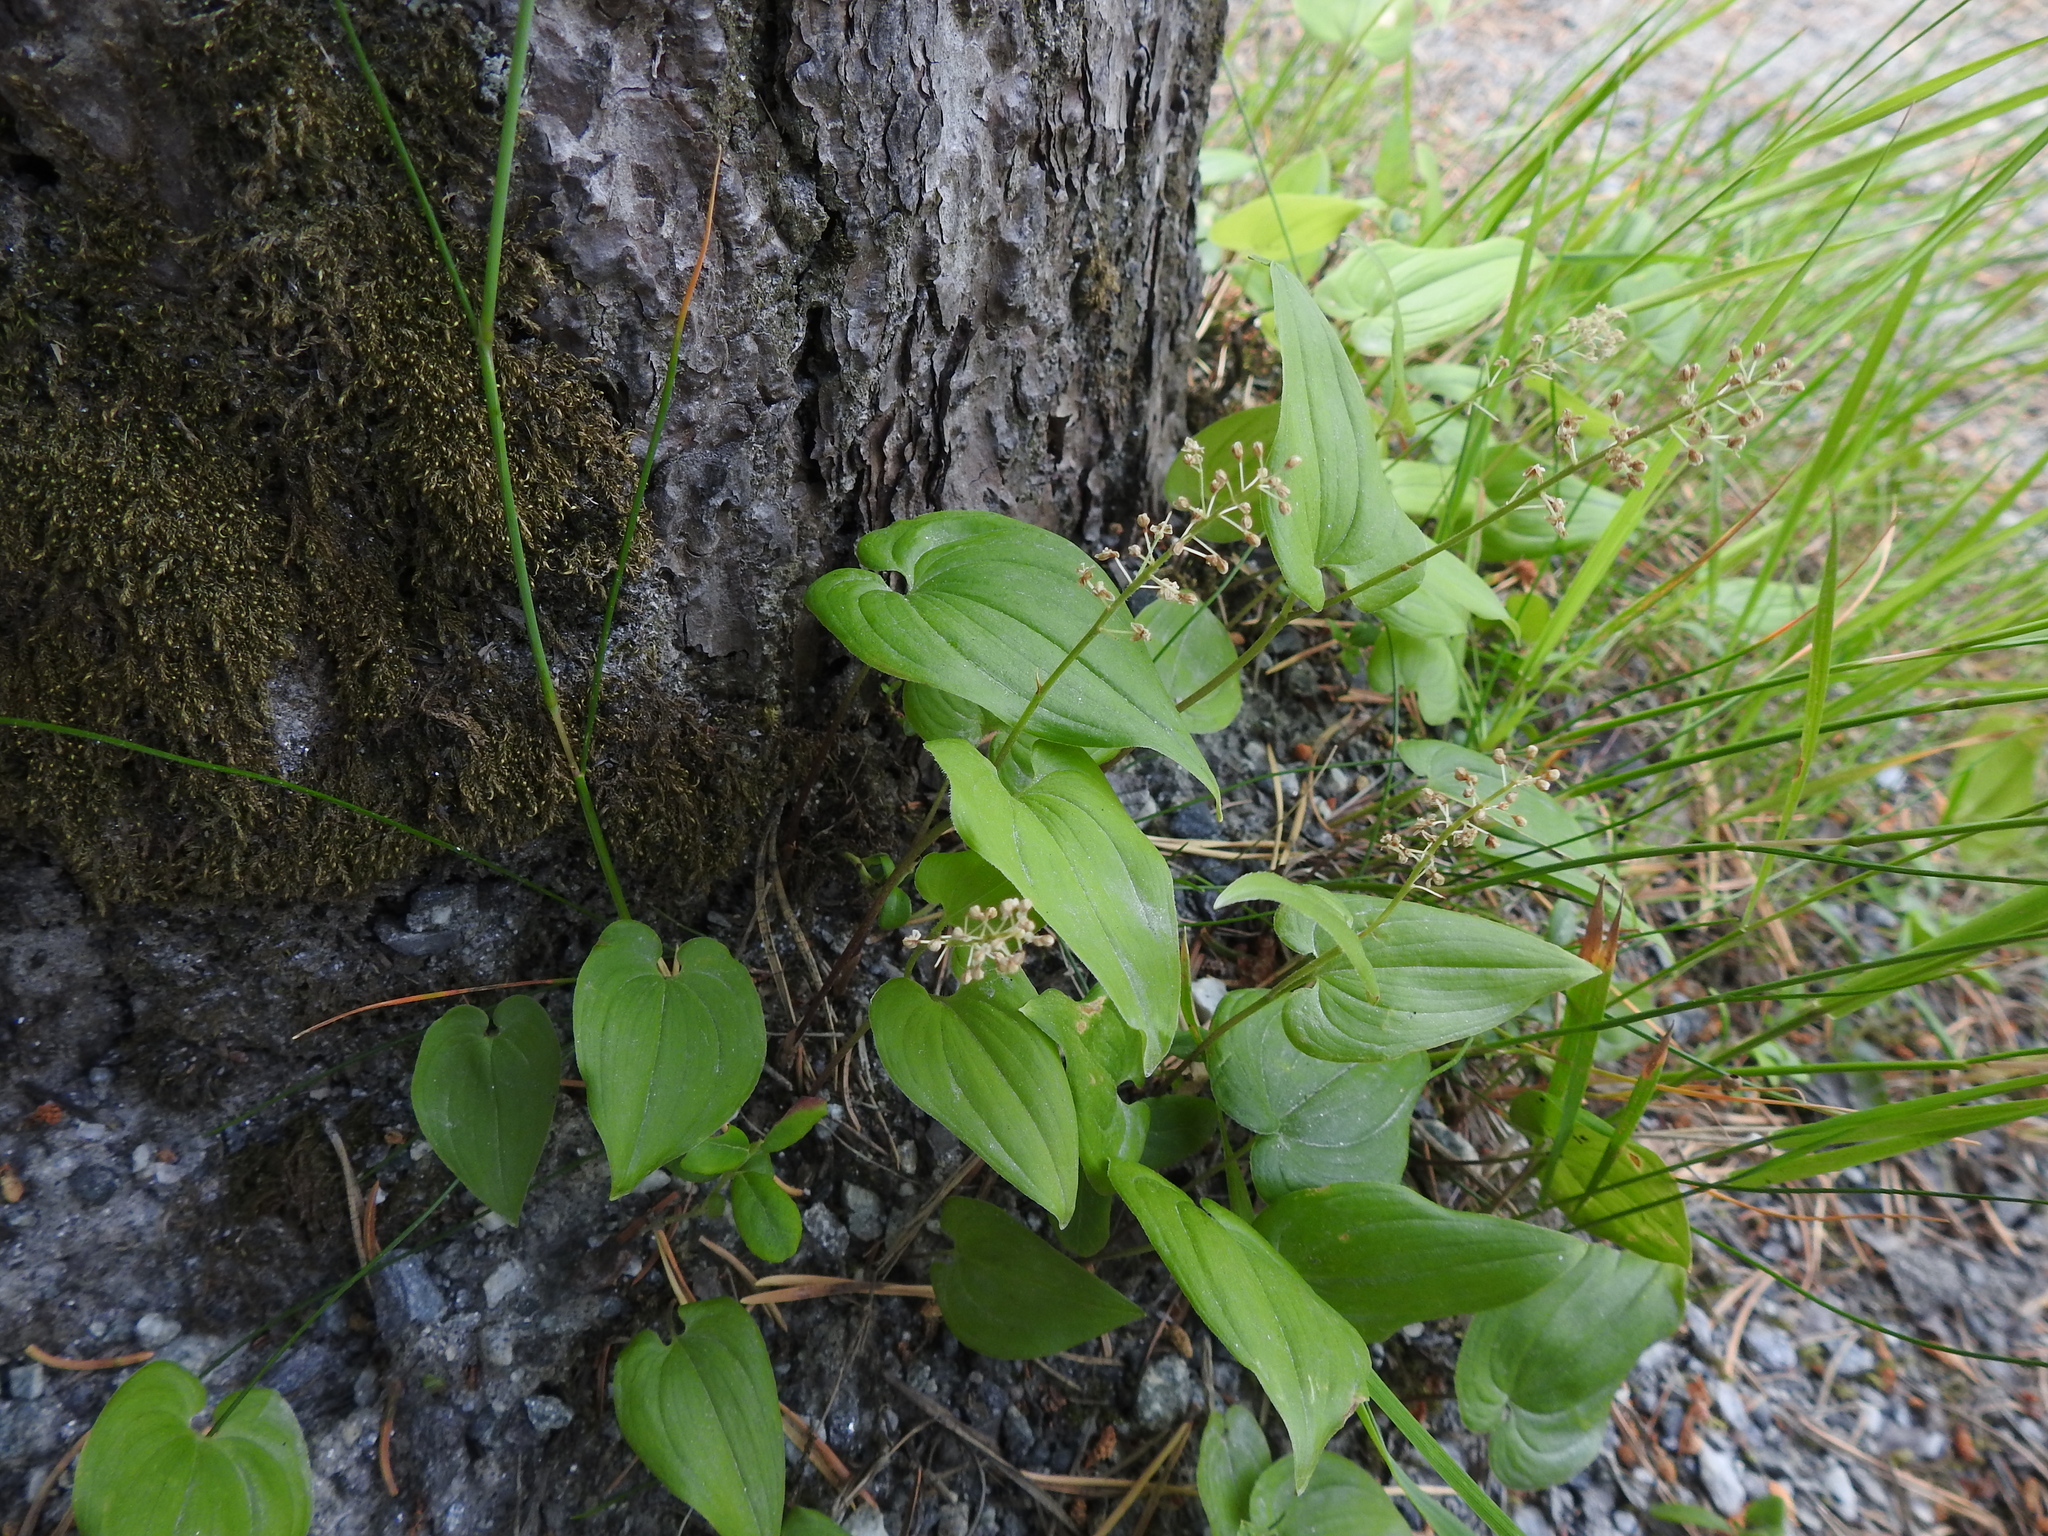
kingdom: Plantae
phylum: Tracheophyta
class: Liliopsida
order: Asparagales
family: Asparagaceae
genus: Maianthemum
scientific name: Maianthemum bifolium
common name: May lily
